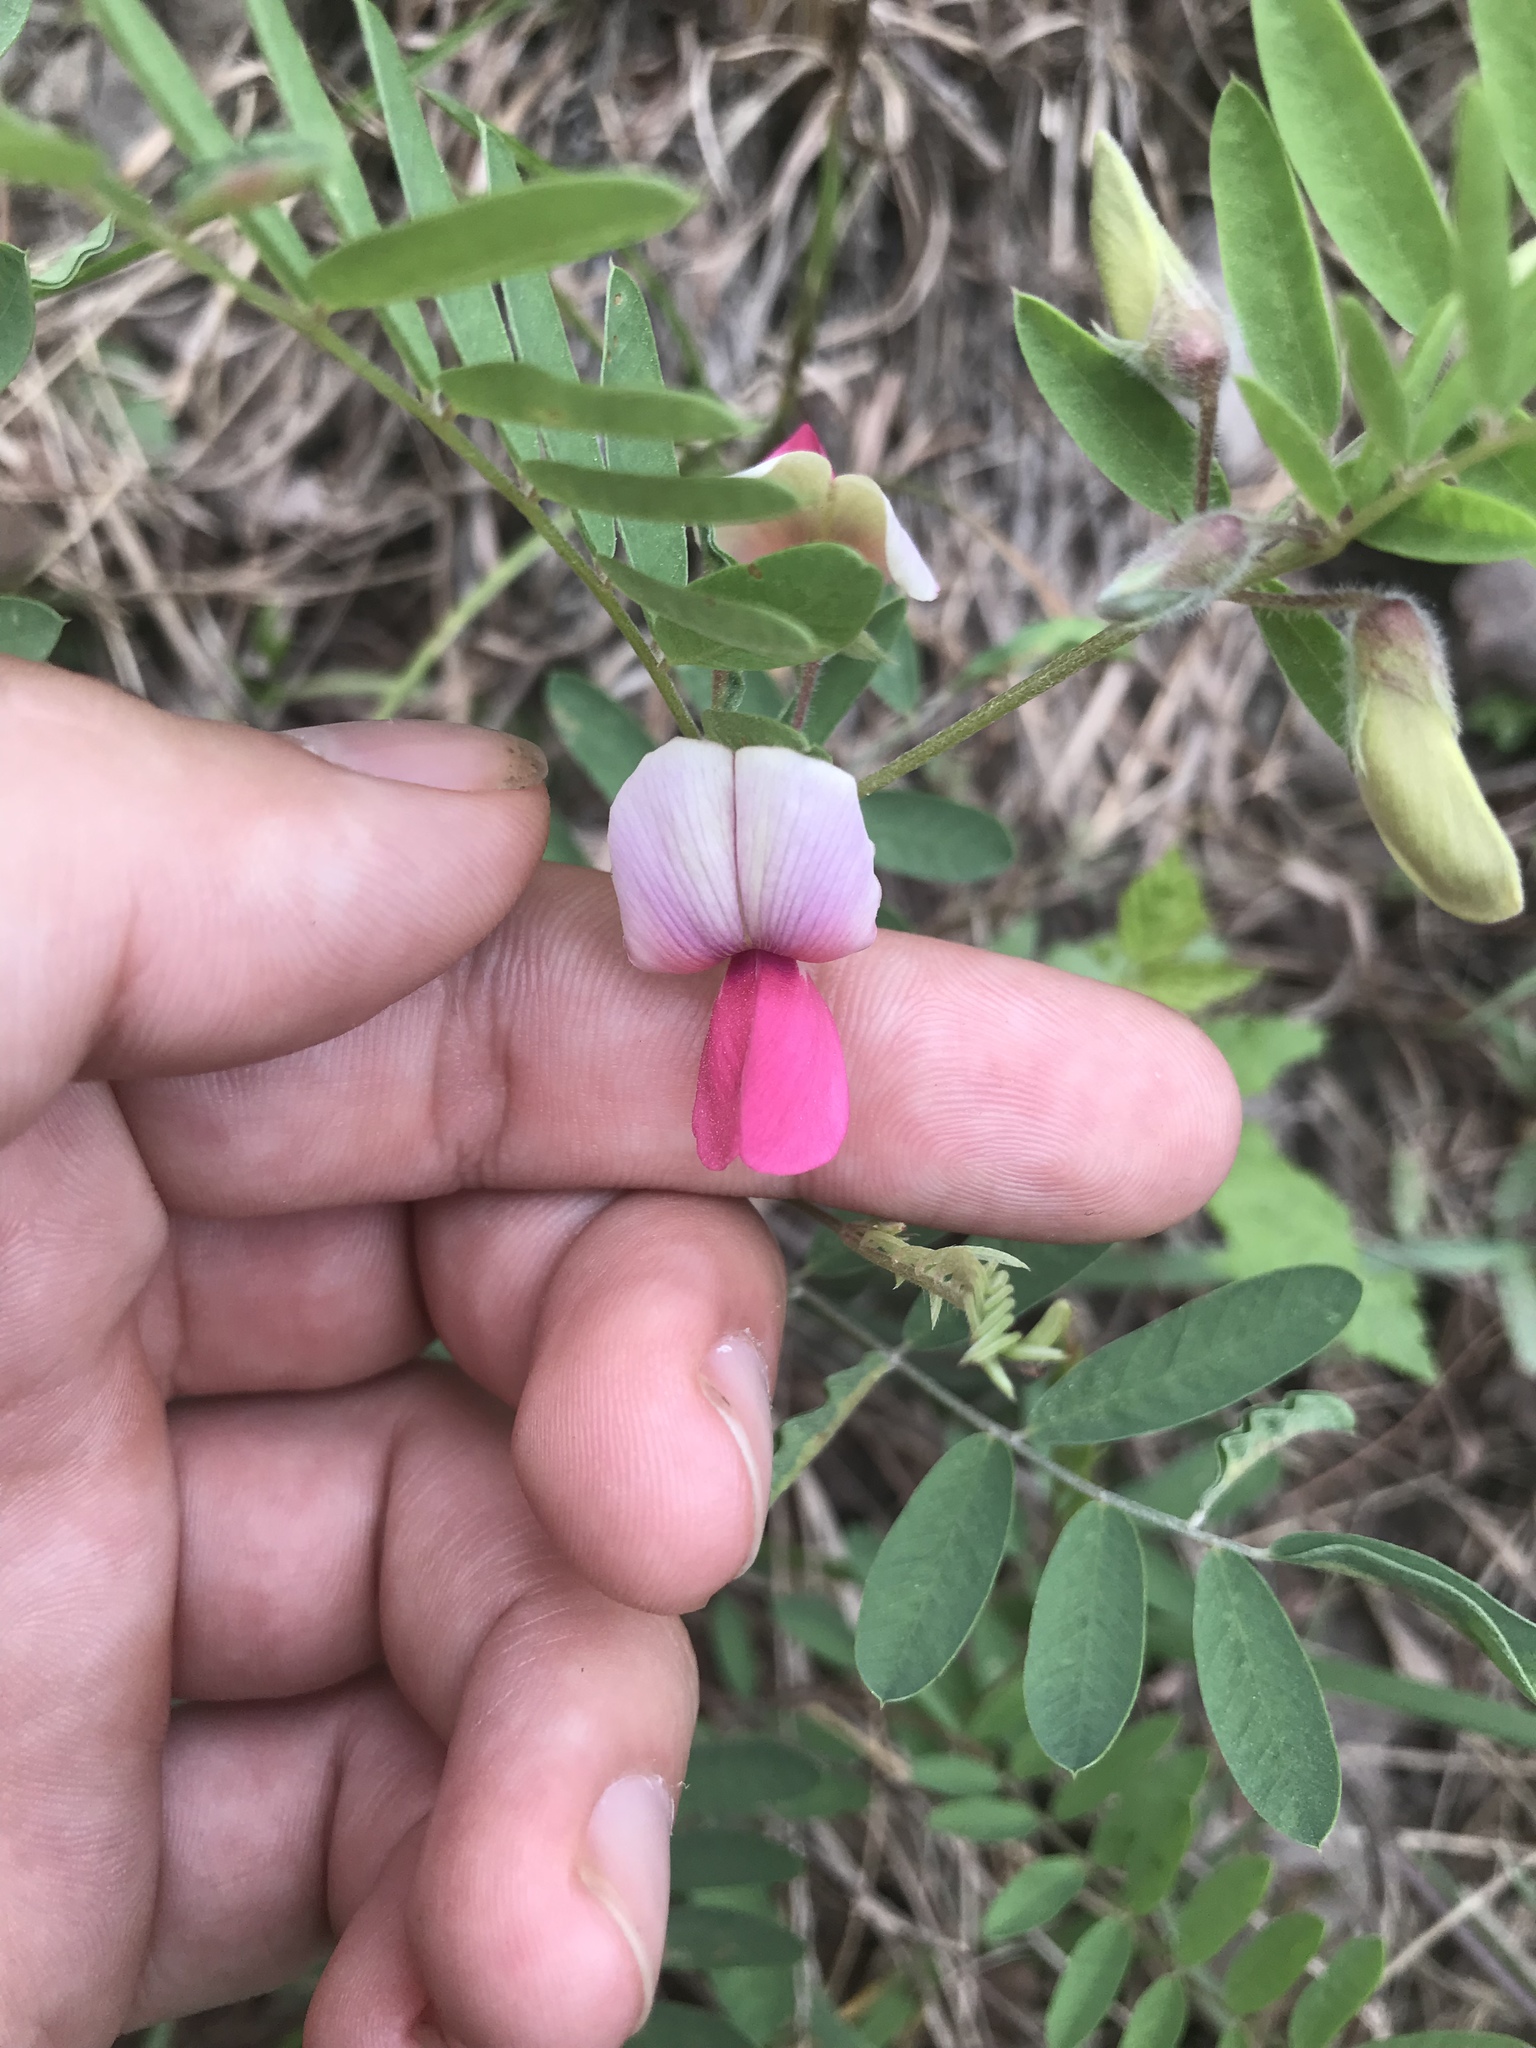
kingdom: Plantae
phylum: Tracheophyta
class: Magnoliopsida
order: Fabales
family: Fabaceae
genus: Tephrosia
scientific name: Tephrosia virginiana
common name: Rabbit-pea
